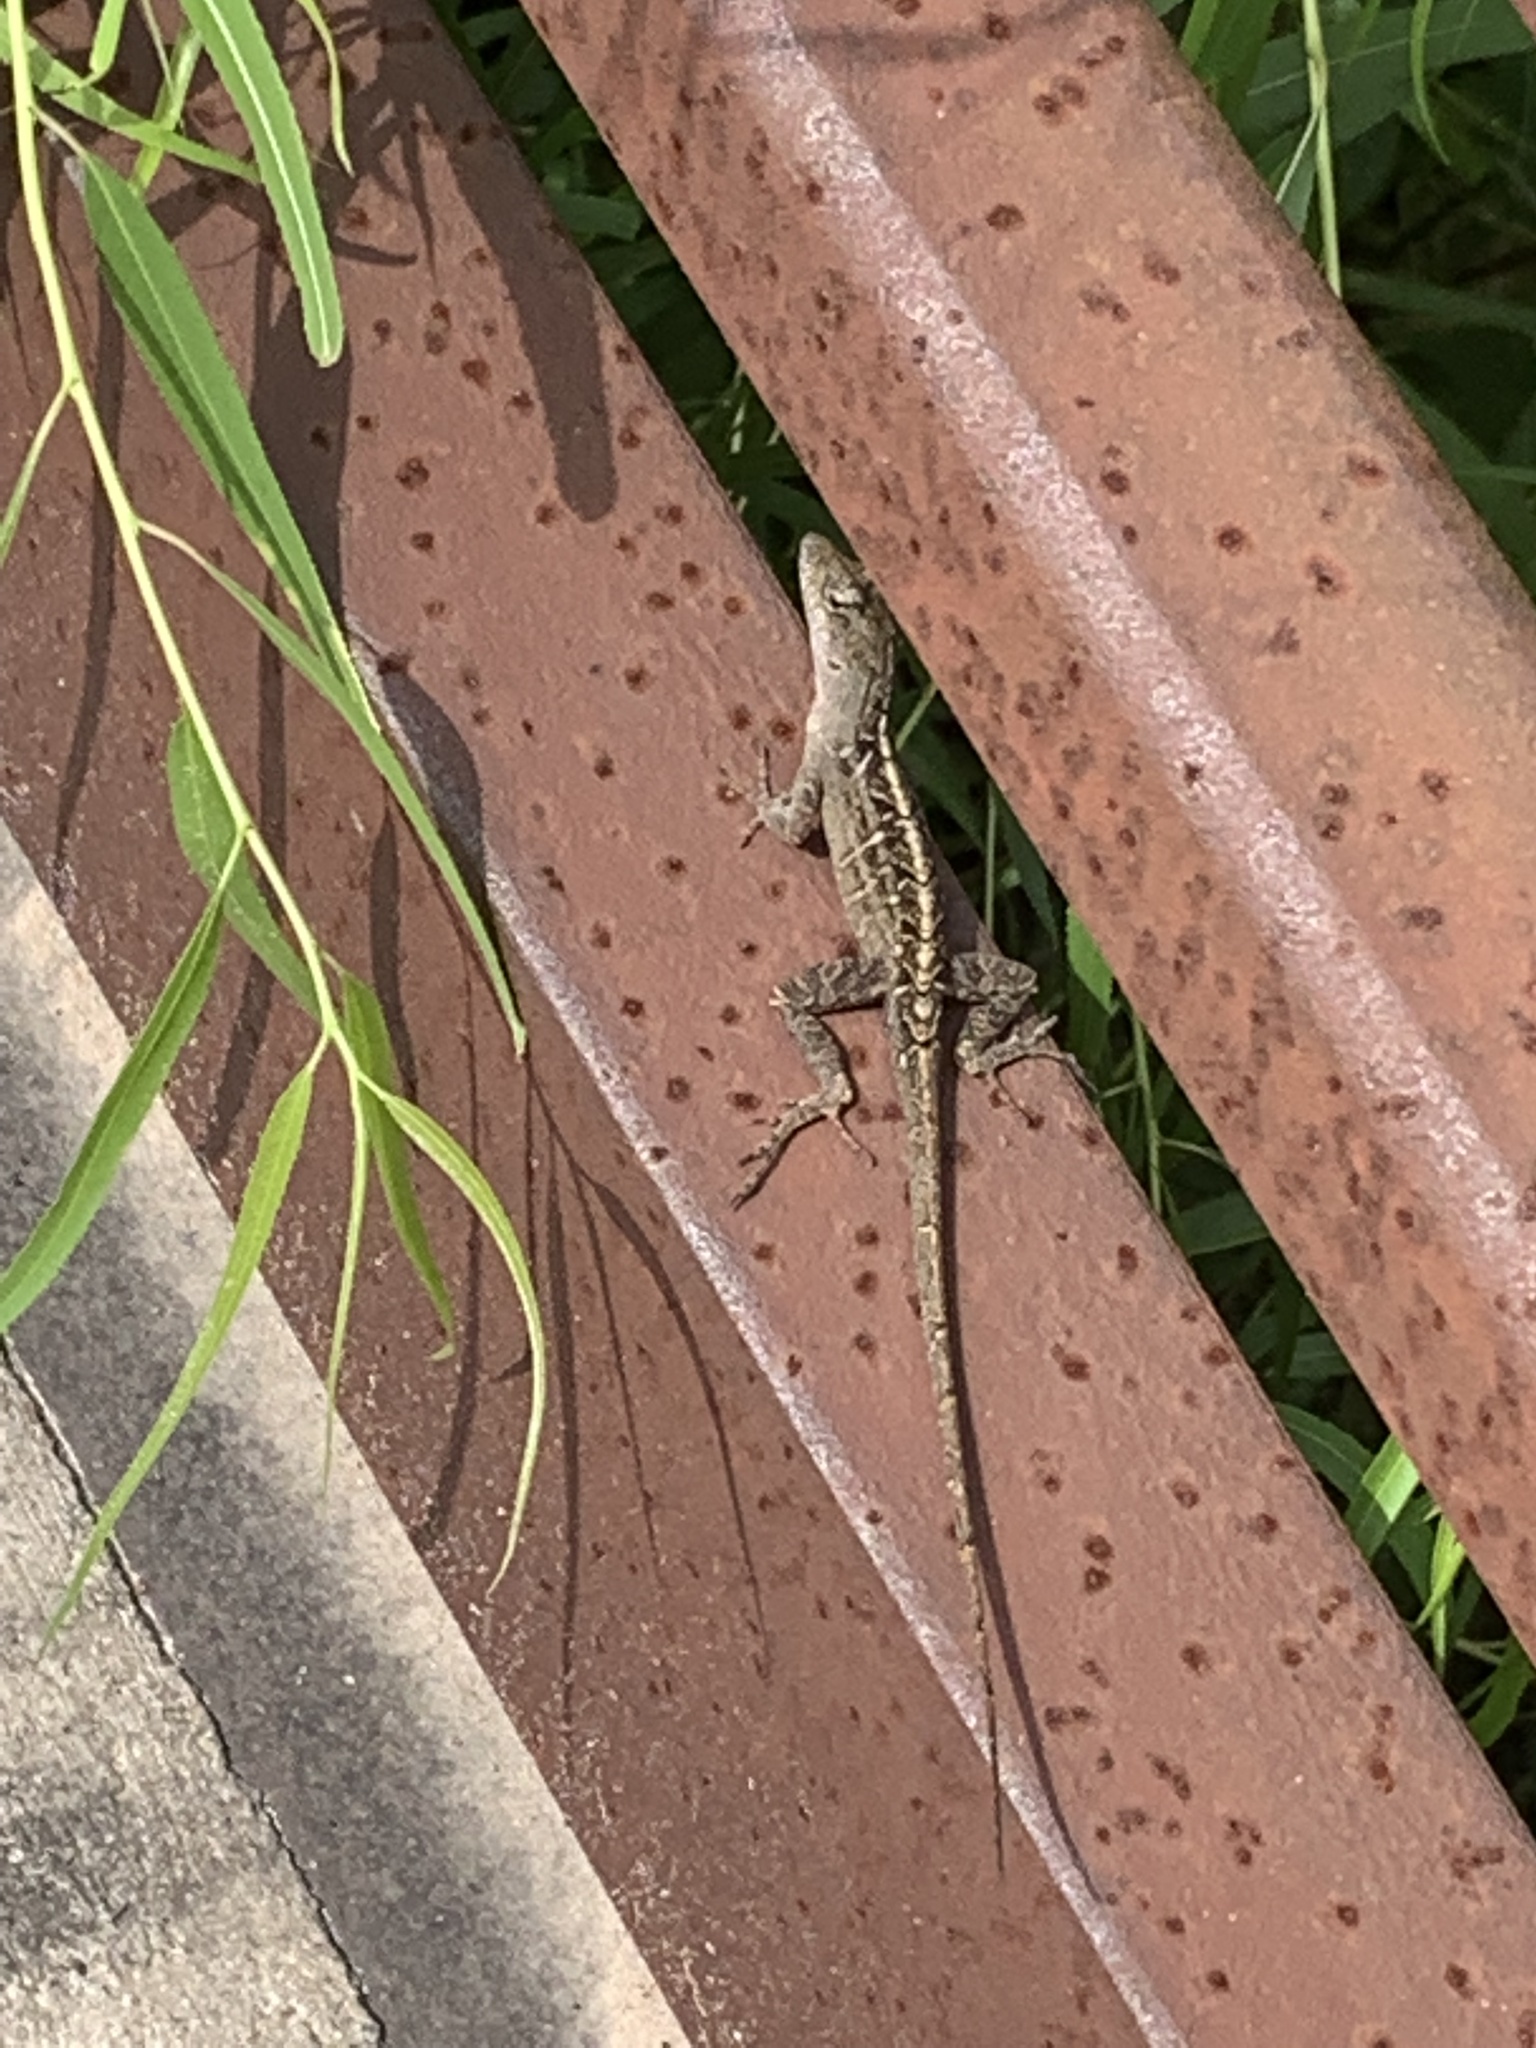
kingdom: Animalia
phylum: Chordata
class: Squamata
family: Dactyloidae
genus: Anolis
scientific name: Anolis sagrei
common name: Brown anole
